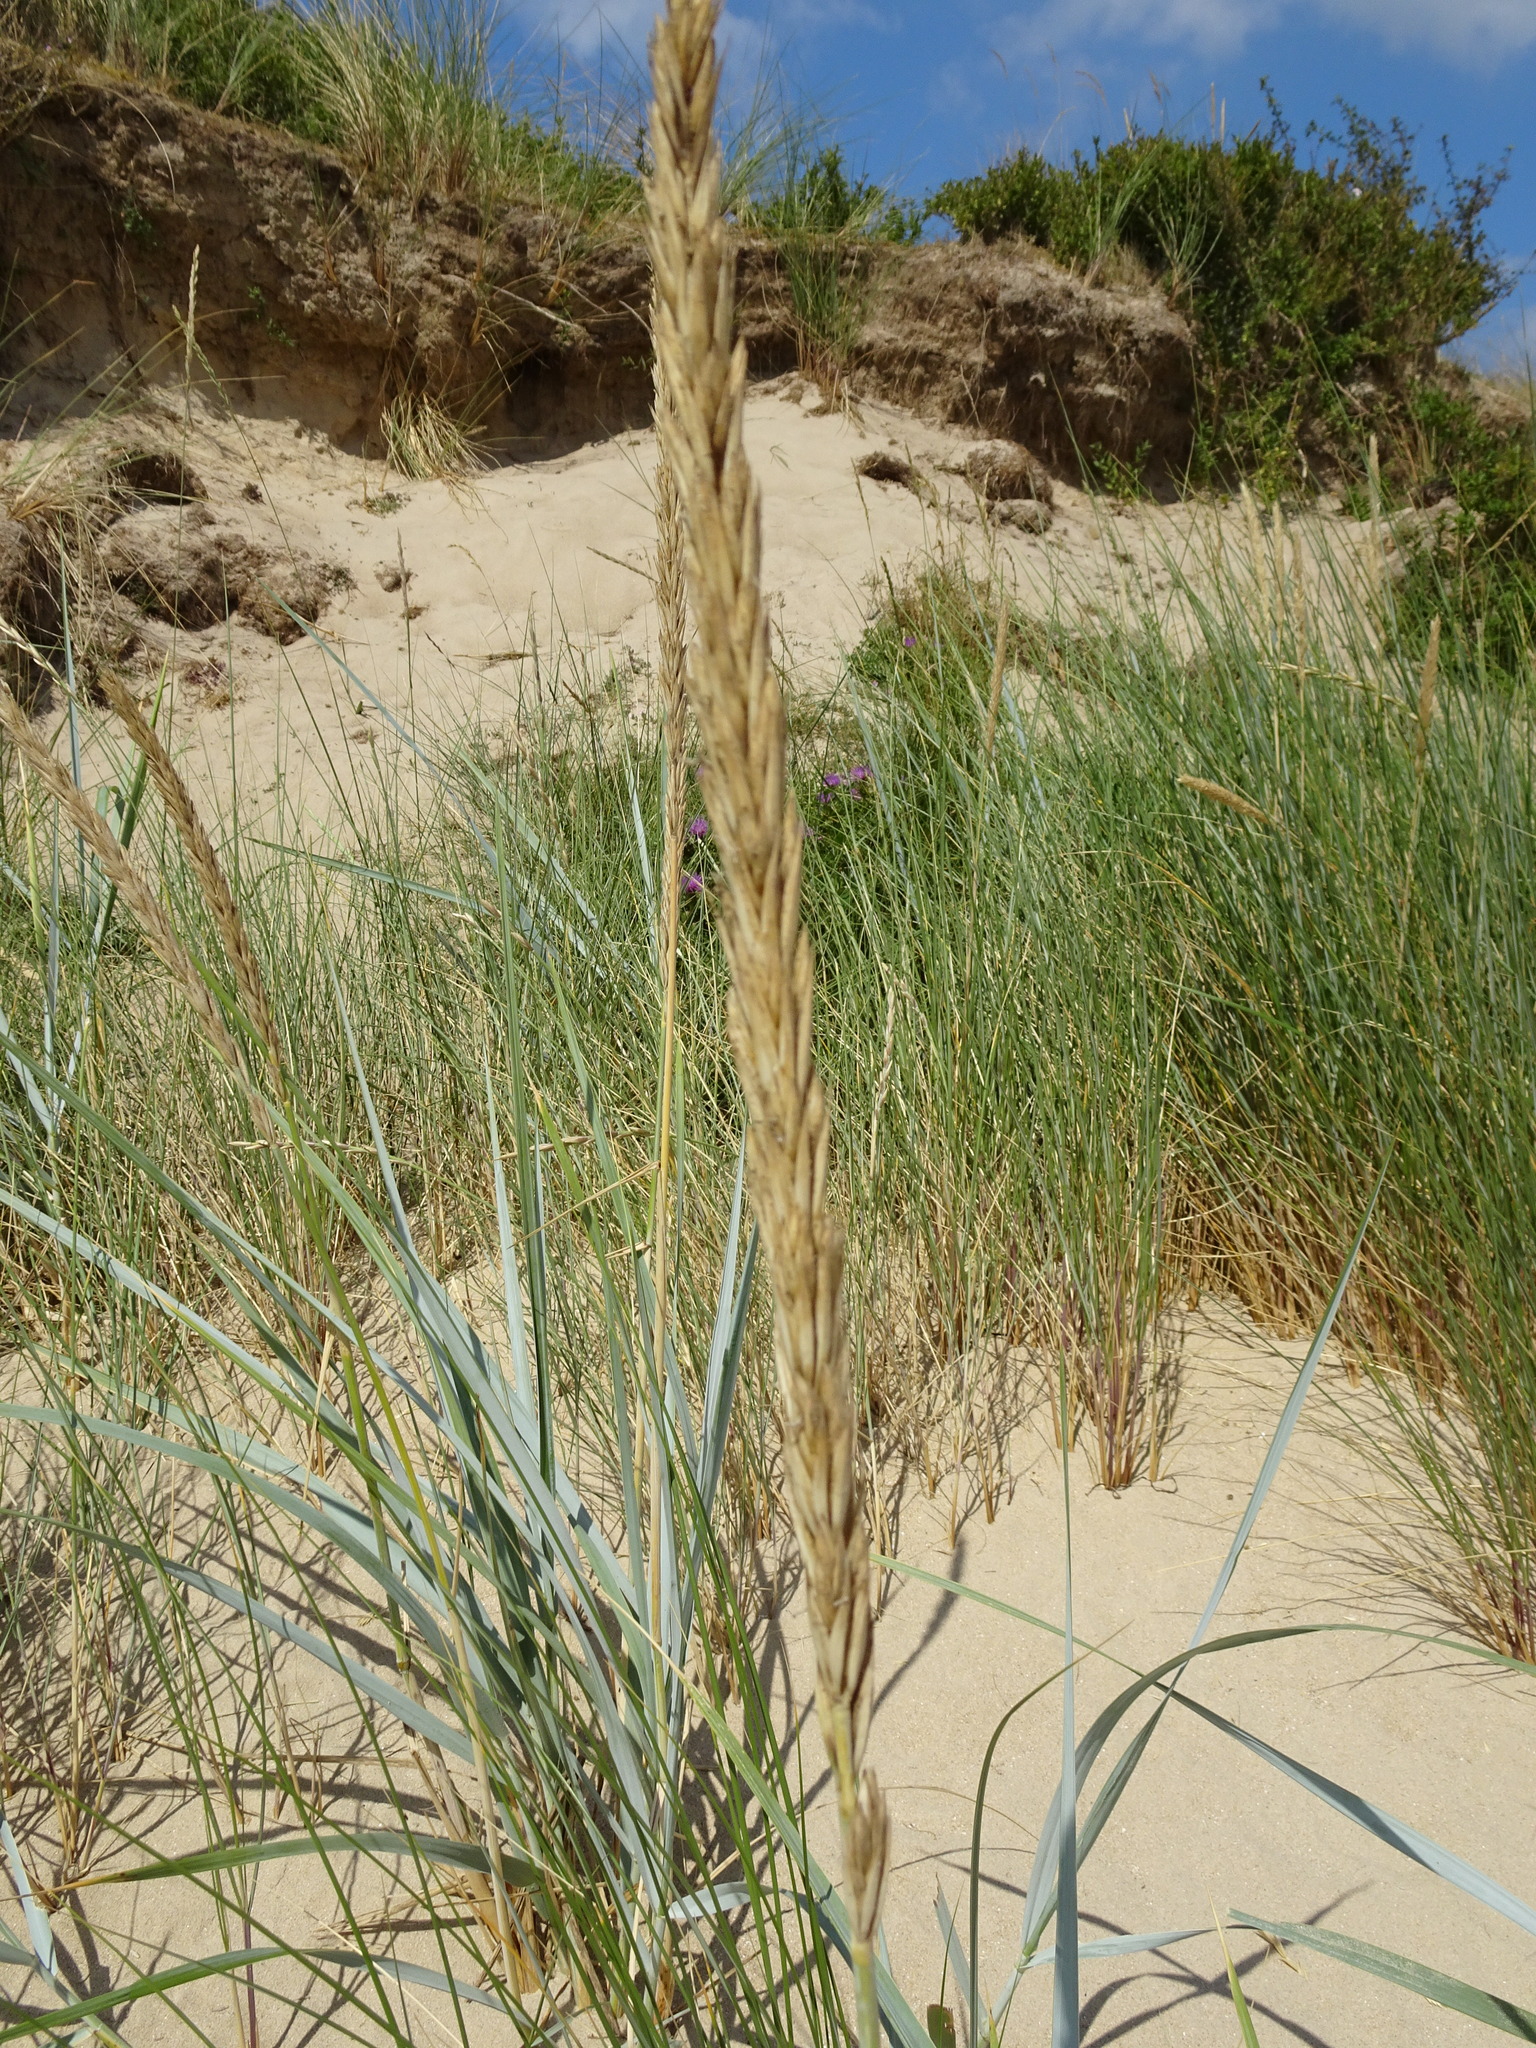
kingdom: Plantae
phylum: Tracheophyta
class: Liliopsida
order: Poales
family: Poaceae
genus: Leymus
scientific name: Leymus arenarius
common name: Lyme-grass
